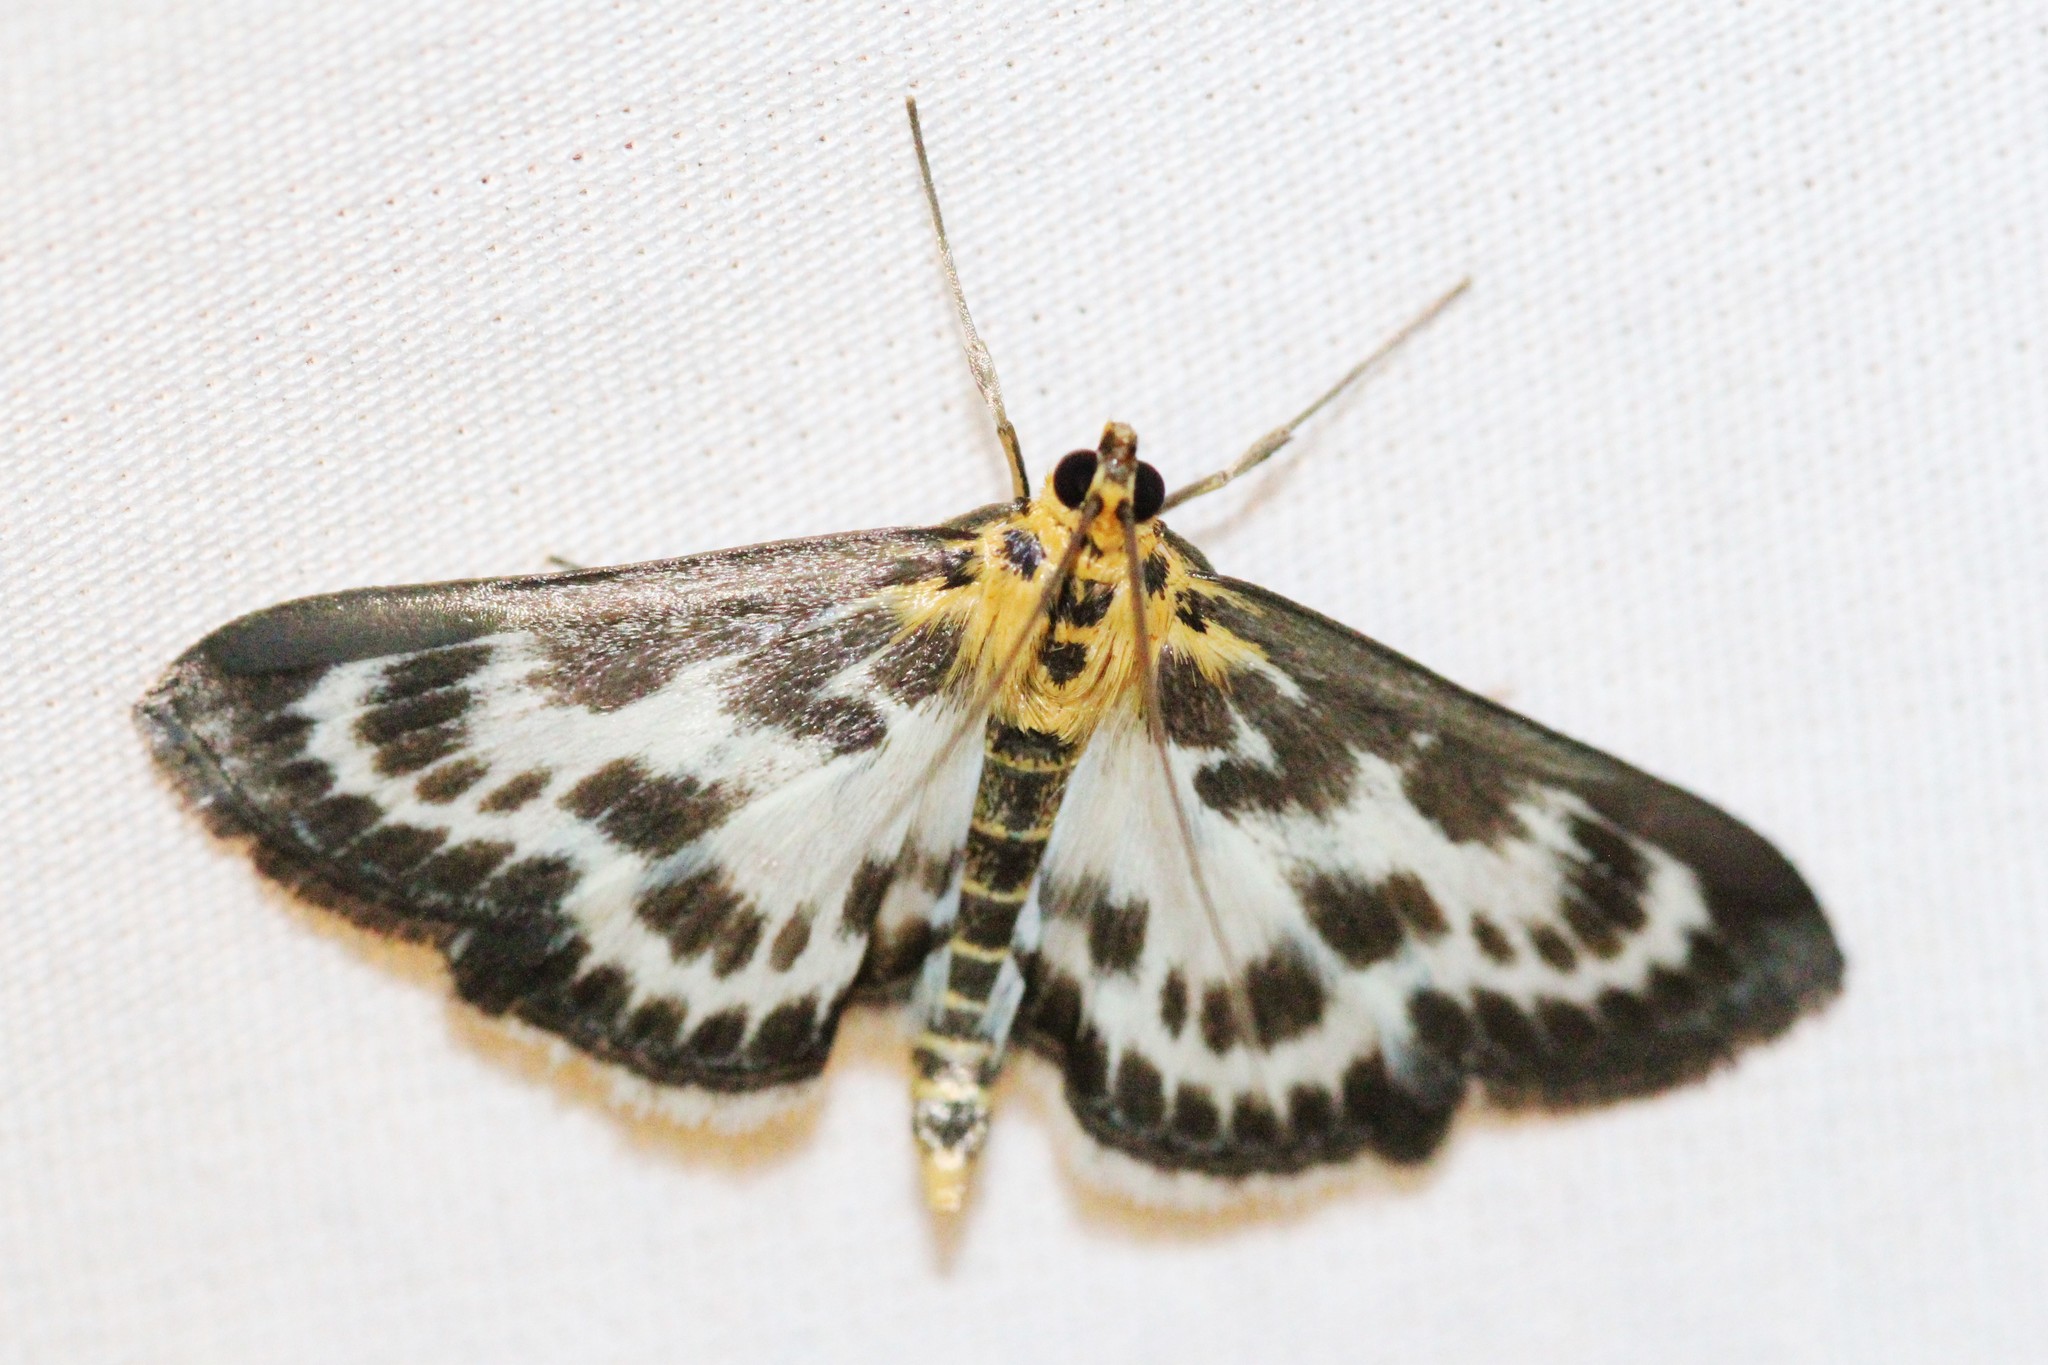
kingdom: Animalia
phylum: Arthropoda
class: Insecta
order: Lepidoptera
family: Crambidae
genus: Anania
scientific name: Anania hortulata
